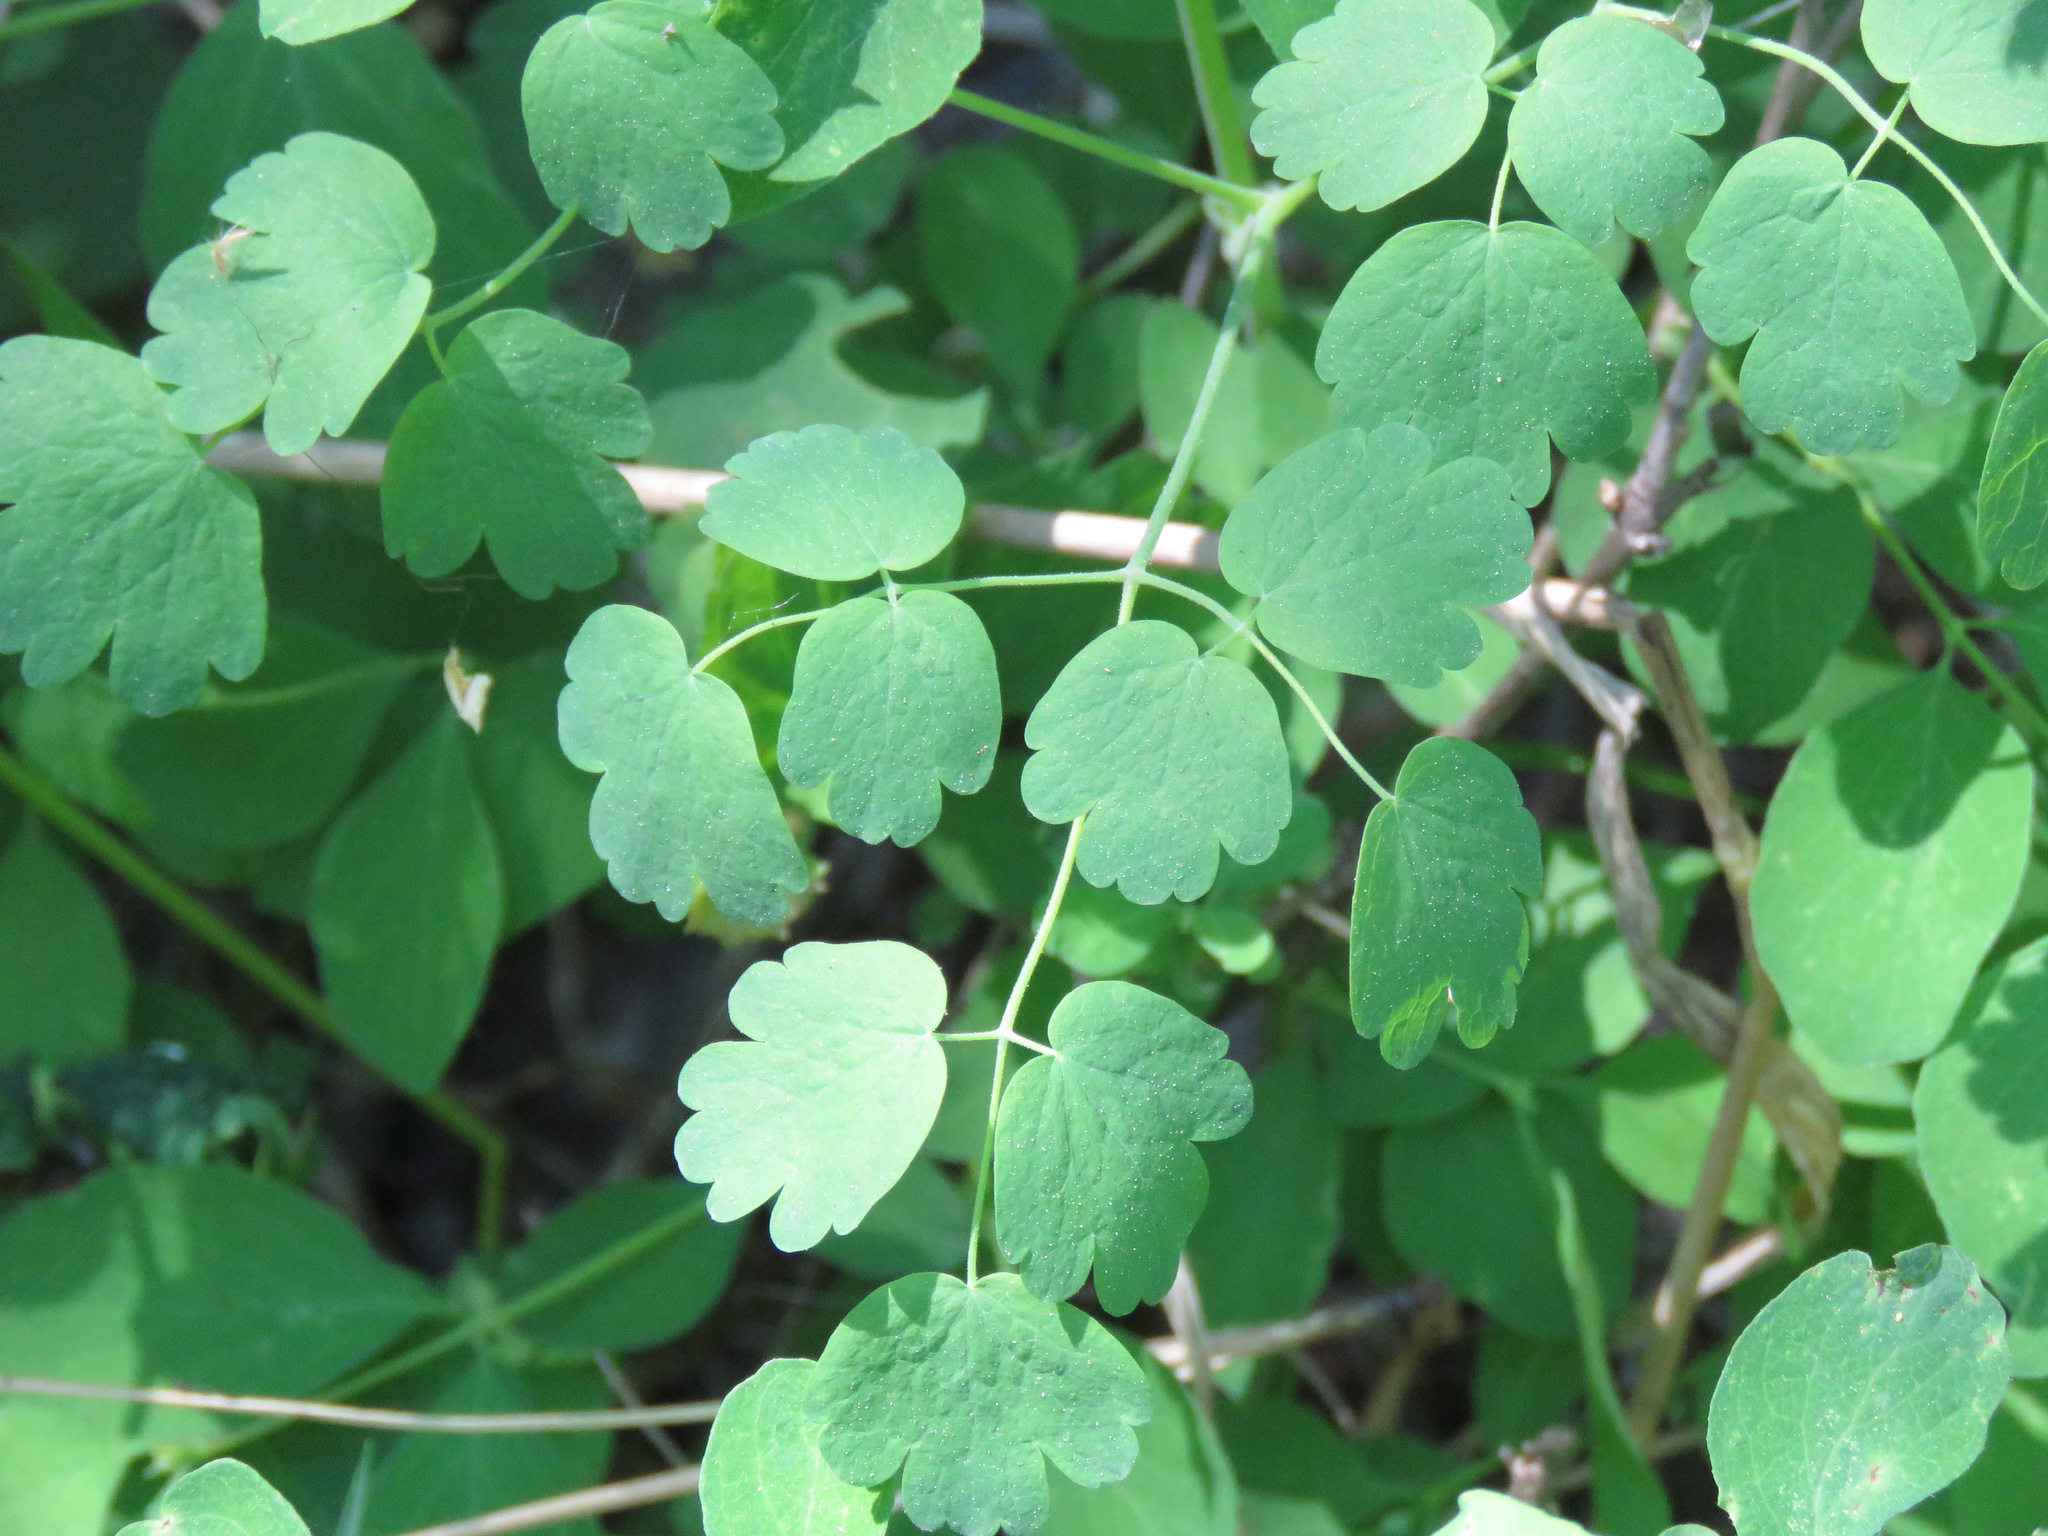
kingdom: Plantae
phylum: Tracheophyta
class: Magnoliopsida
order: Ranunculales
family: Ranunculaceae
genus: Thalictrum
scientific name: Thalictrum occidentale
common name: Western meadow-rue
